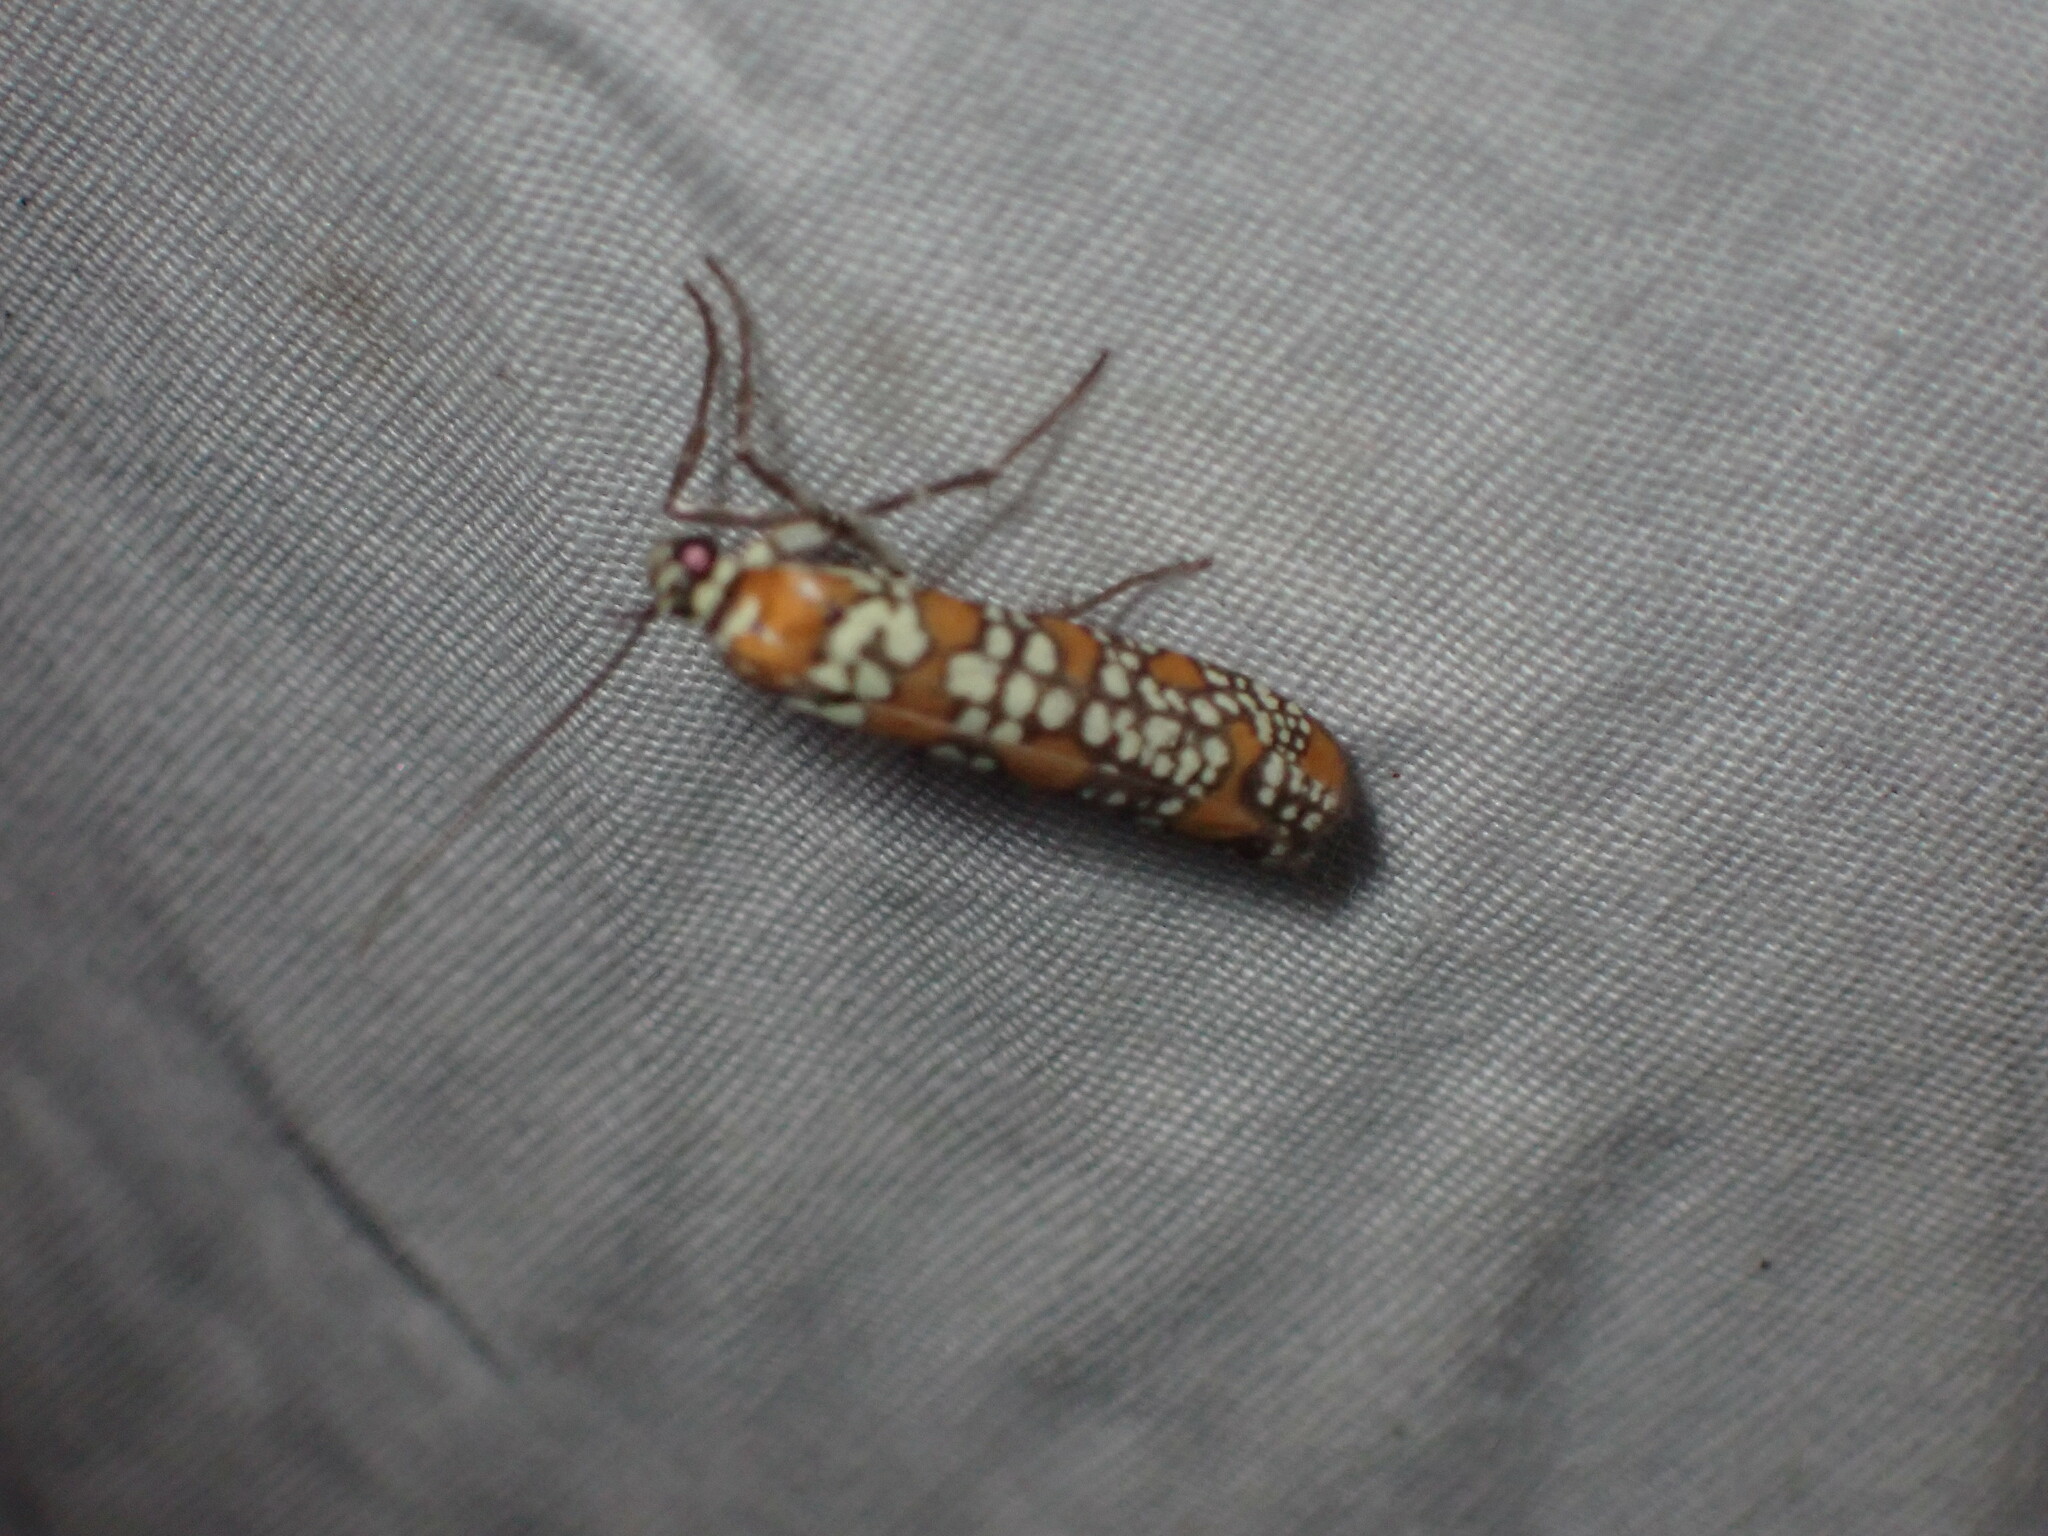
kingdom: Animalia
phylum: Arthropoda
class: Insecta
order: Lepidoptera
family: Attevidae
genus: Atteva
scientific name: Atteva punctella
